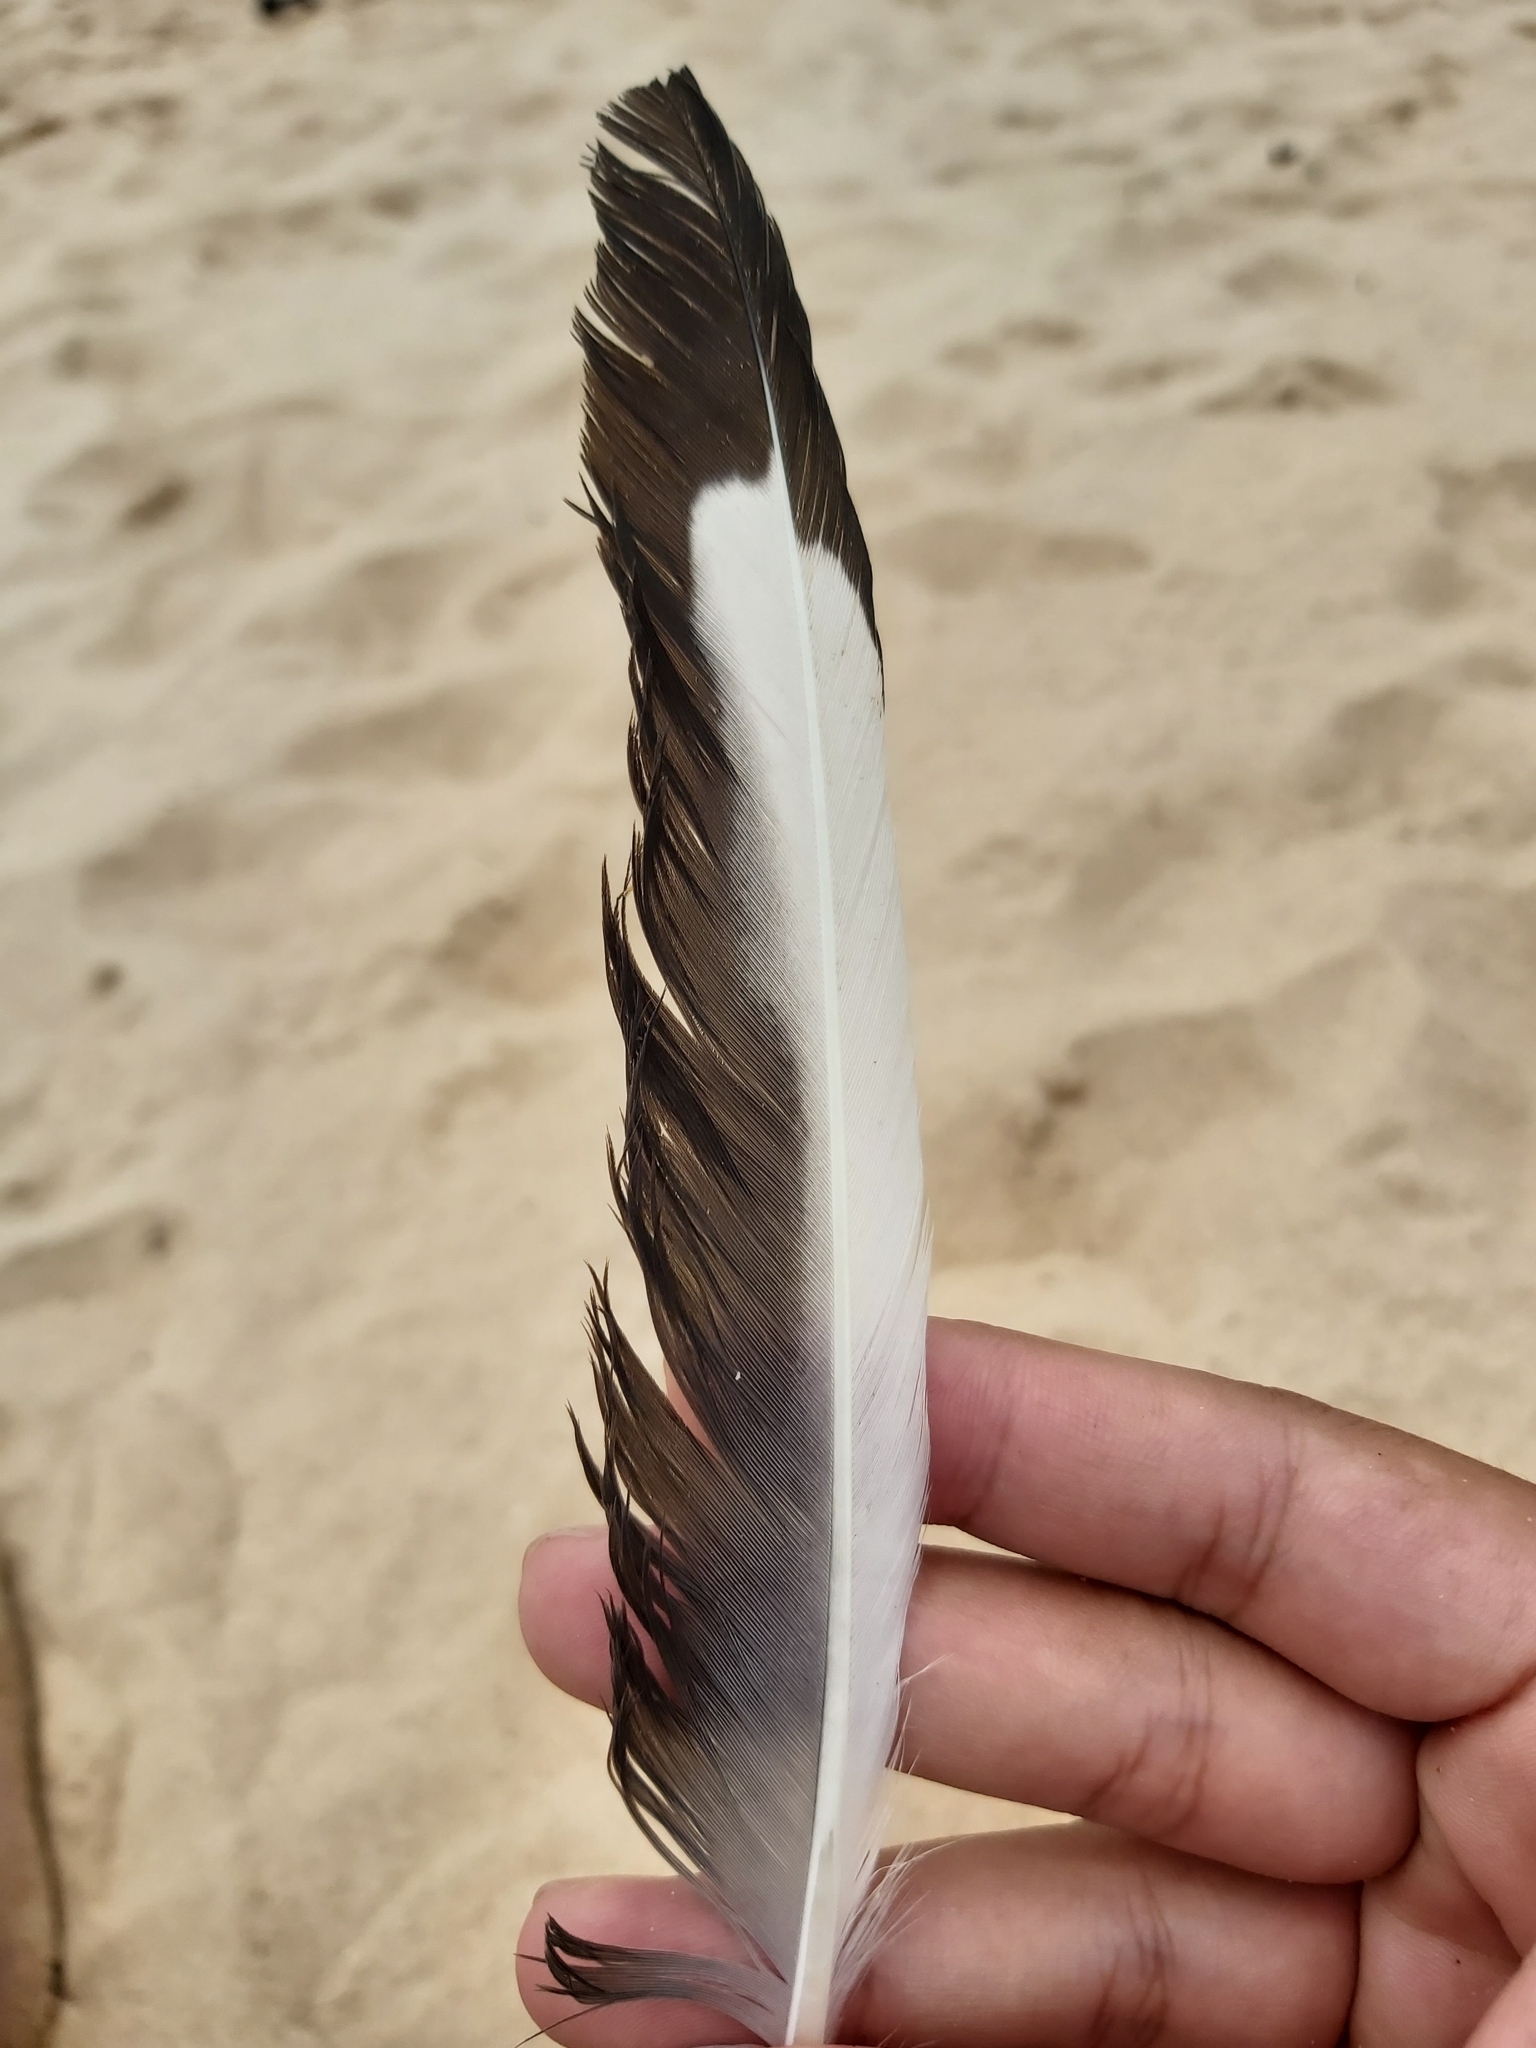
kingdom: Animalia
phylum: Chordata
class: Aves
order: Charadriiformes
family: Laridae
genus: Chroicocephalus
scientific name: Chroicocephalus novaehollandiae
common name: Silver gull
